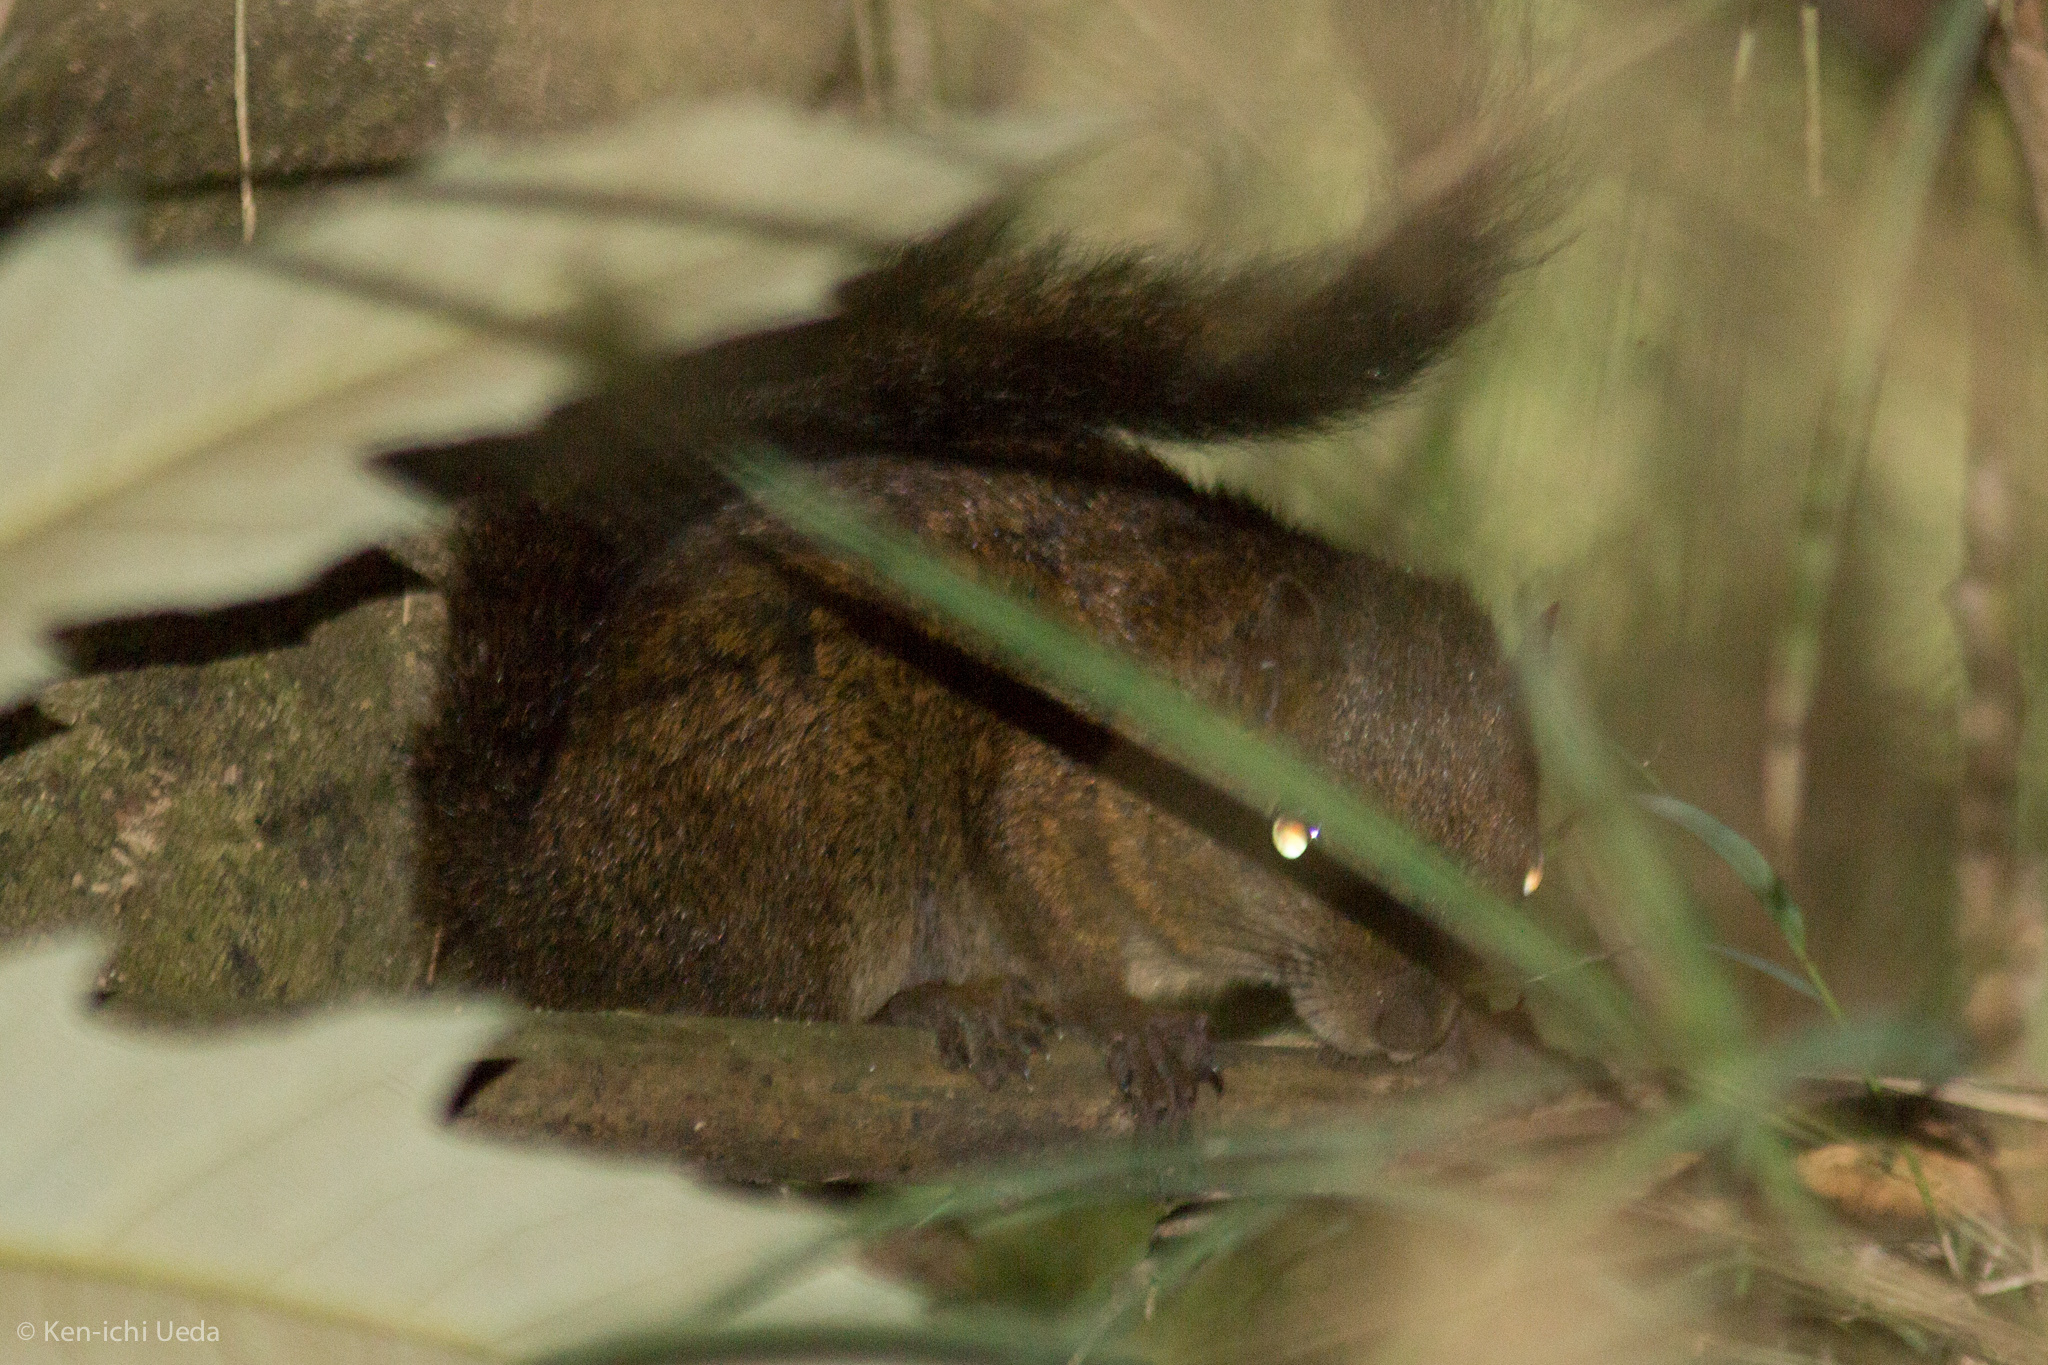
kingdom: Animalia
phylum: Chordata
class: Mammalia
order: Rodentia
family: Sciuridae
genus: Sciurus
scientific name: Sciurus pucheranii
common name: Andean squirrel
